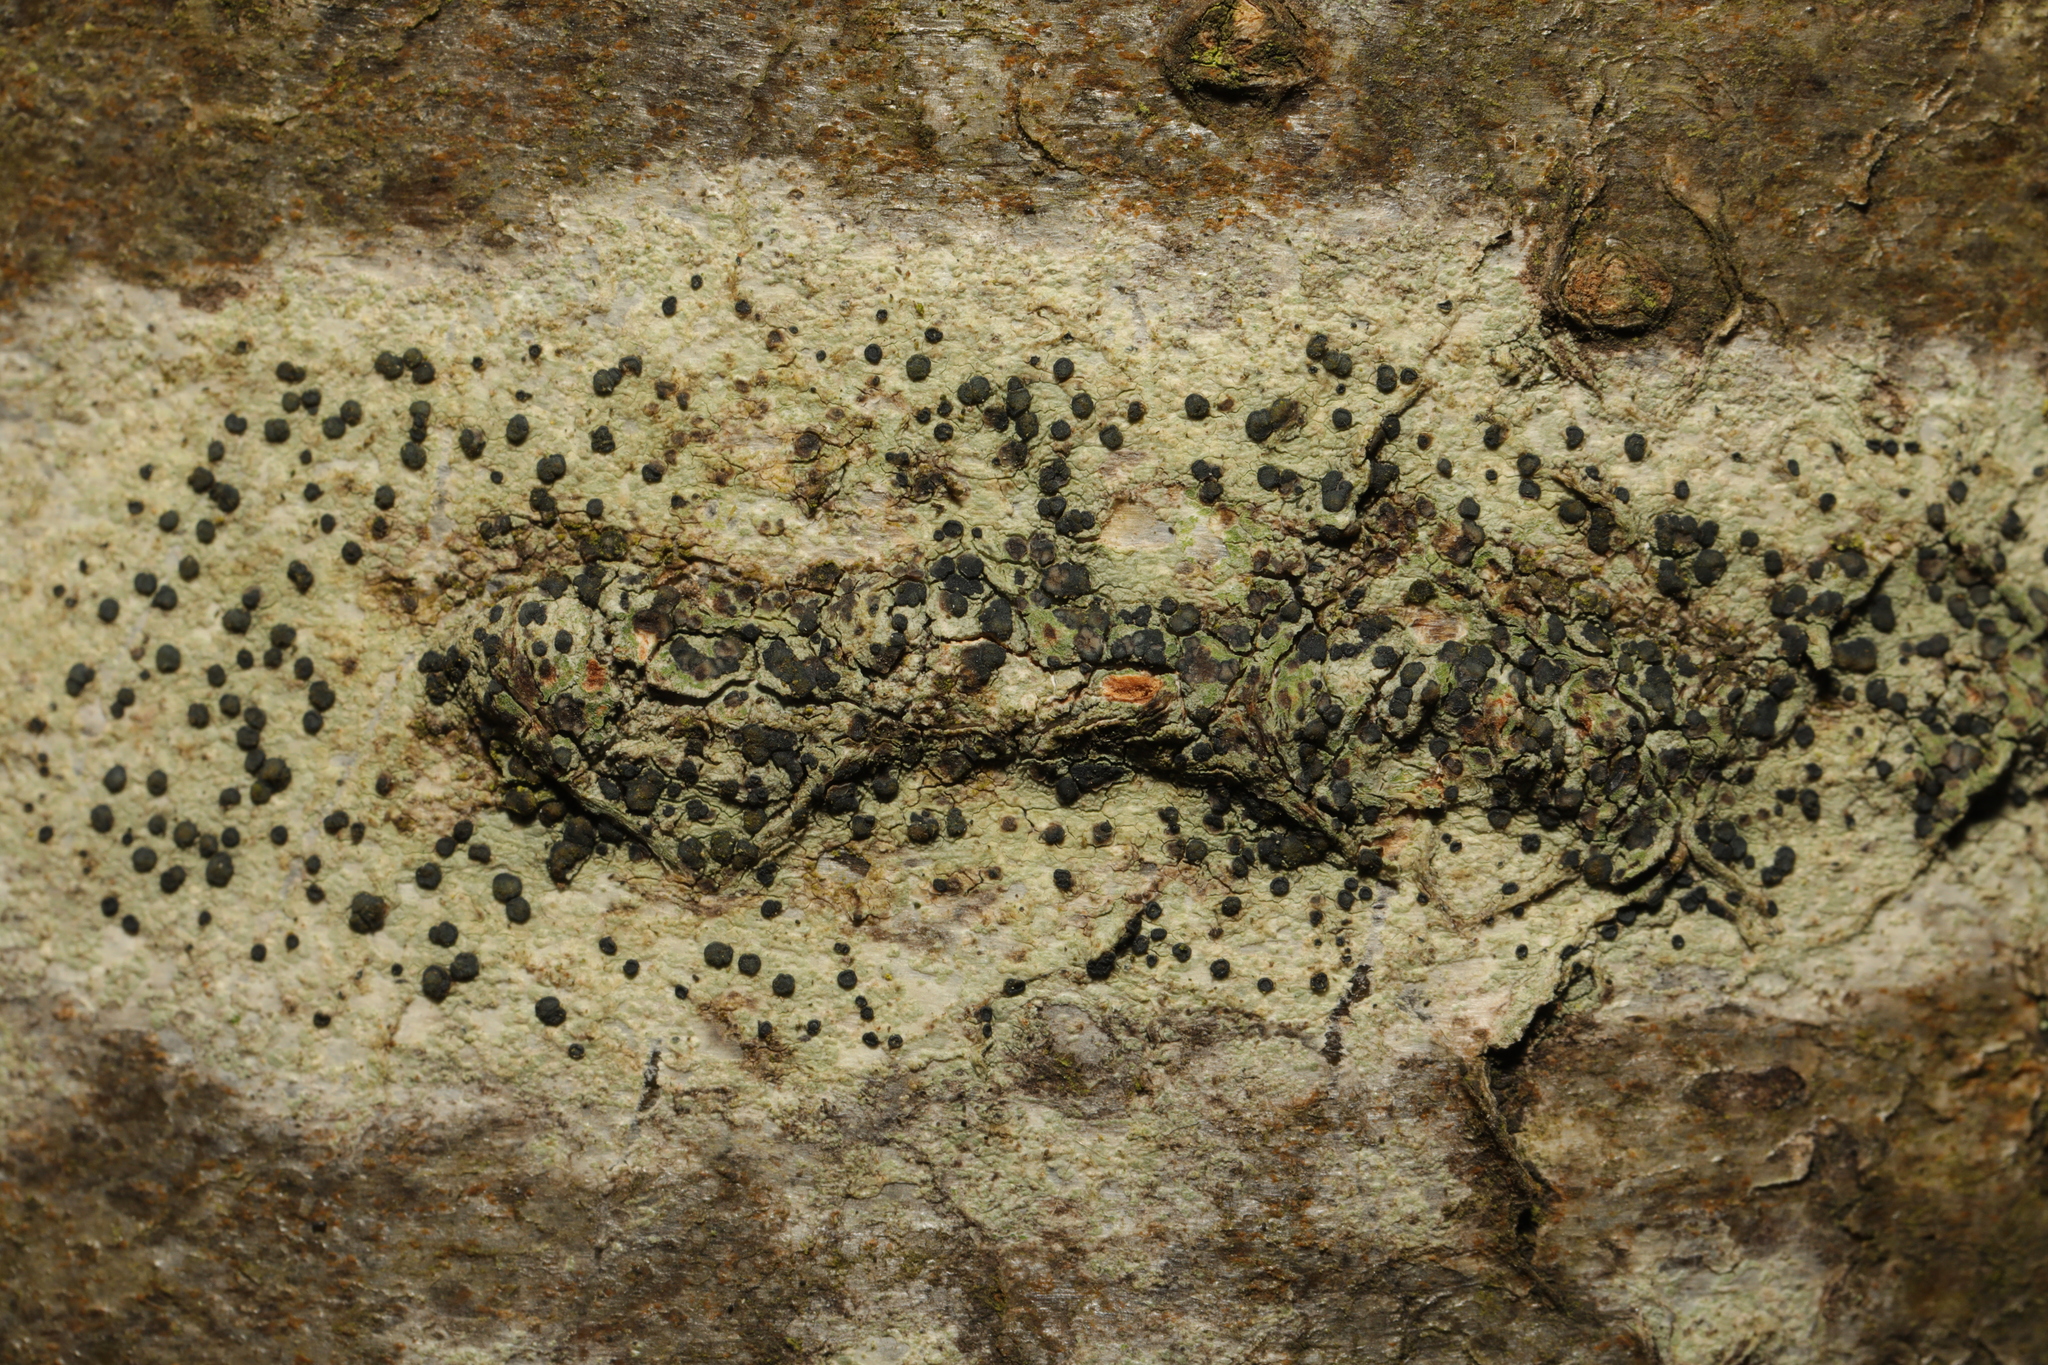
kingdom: Fungi
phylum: Ascomycota
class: Lecanoromycetes
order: Lecanorales
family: Lecanoraceae
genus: Lecidella
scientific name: Lecidella elaeochroma
